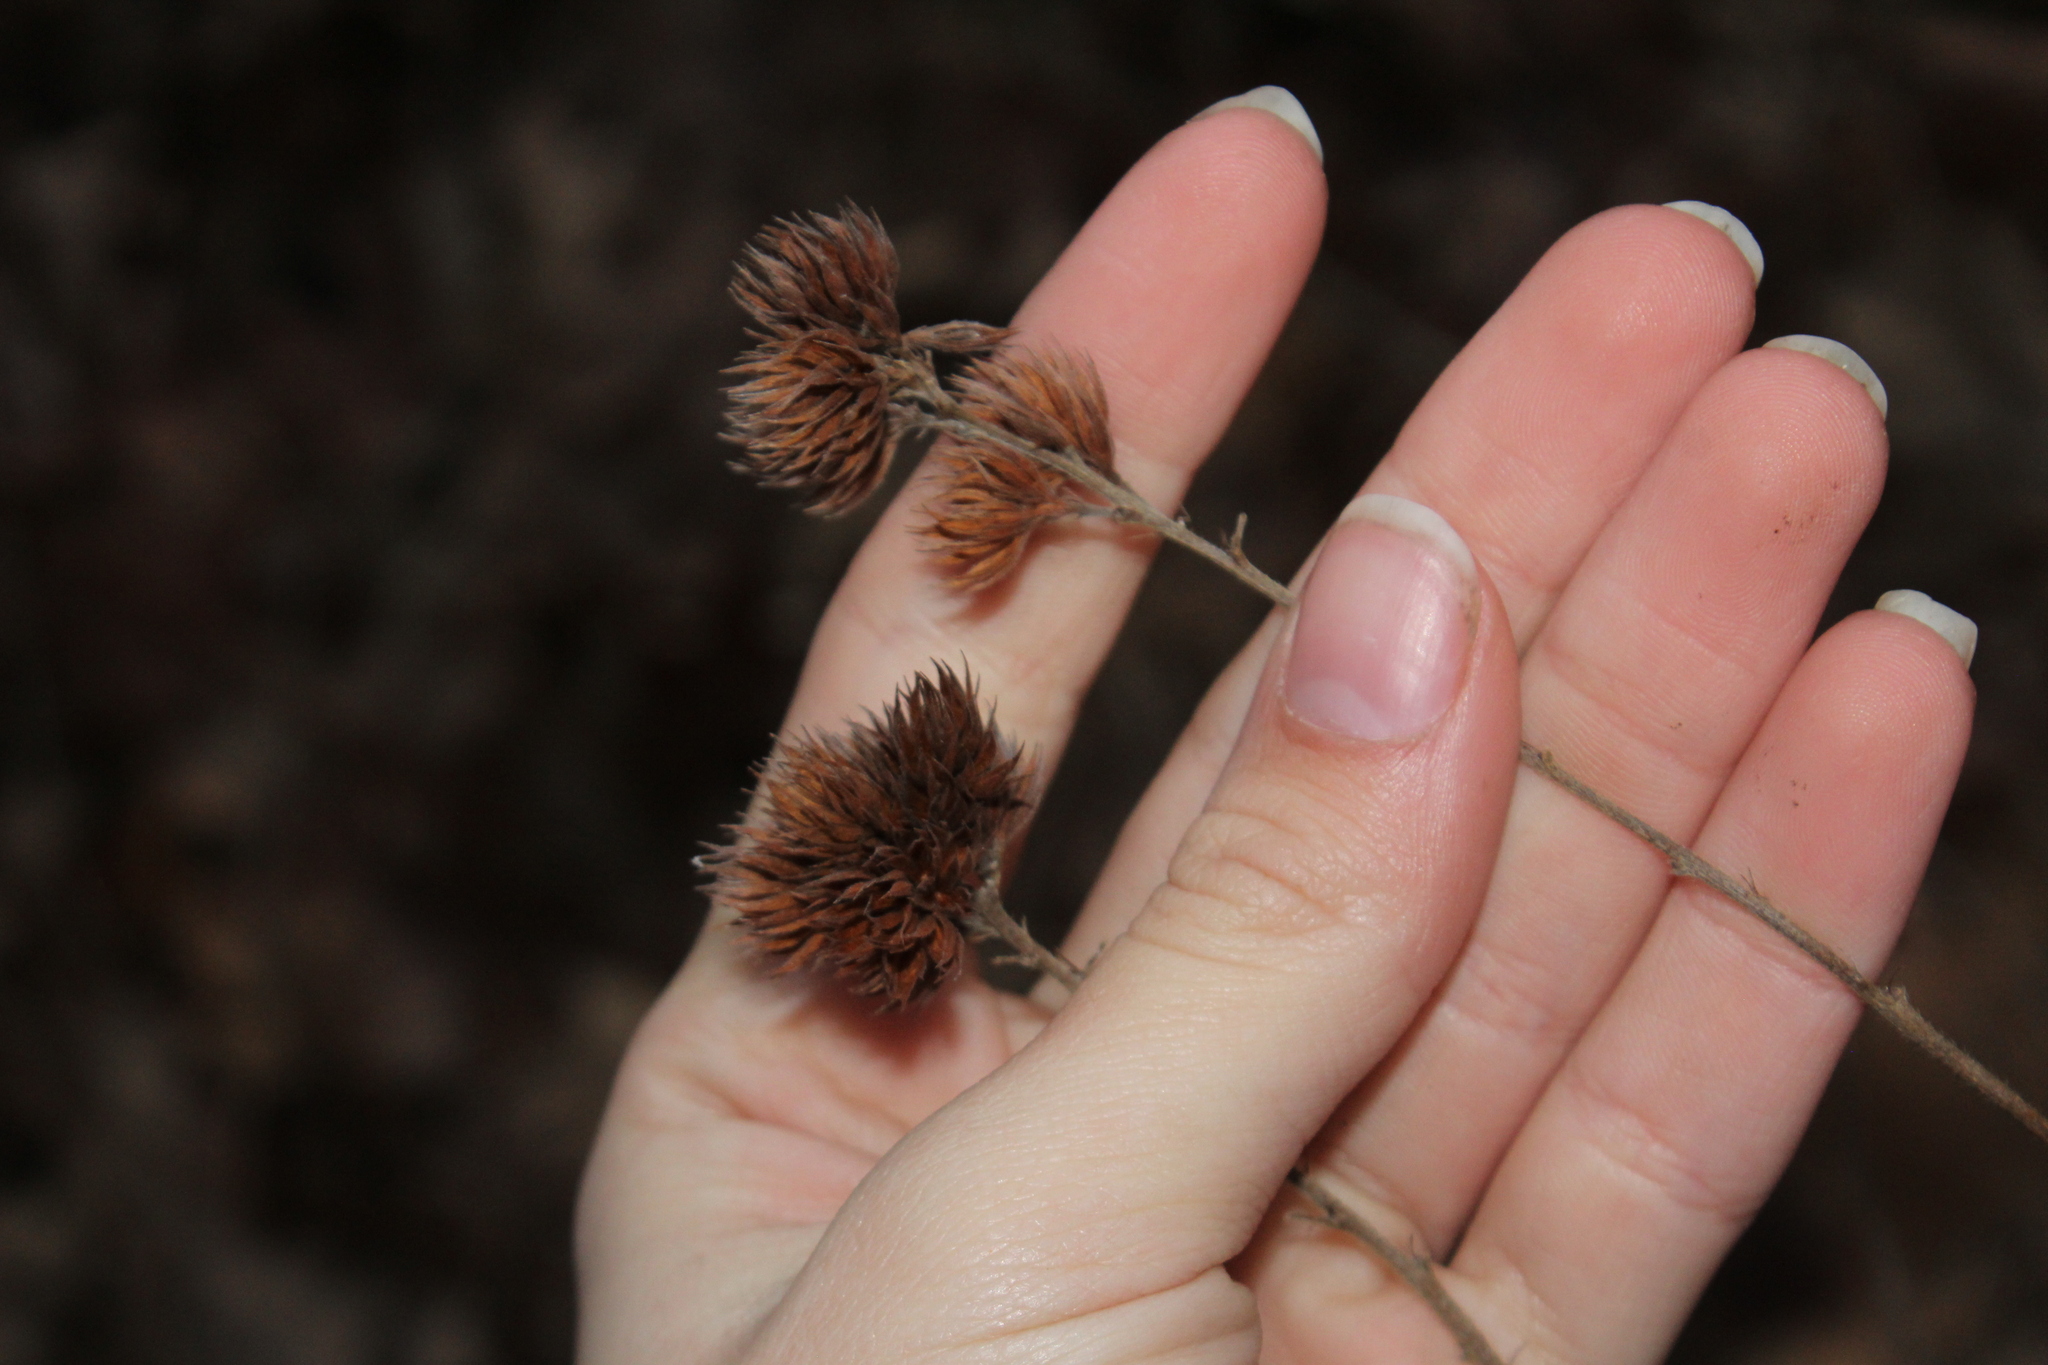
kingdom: Plantae
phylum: Tracheophyta
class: Magnoliopsida
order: Fabales
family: Fabaceae
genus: Lespedeza
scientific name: Lespedeza capitata
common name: Dusty clover
